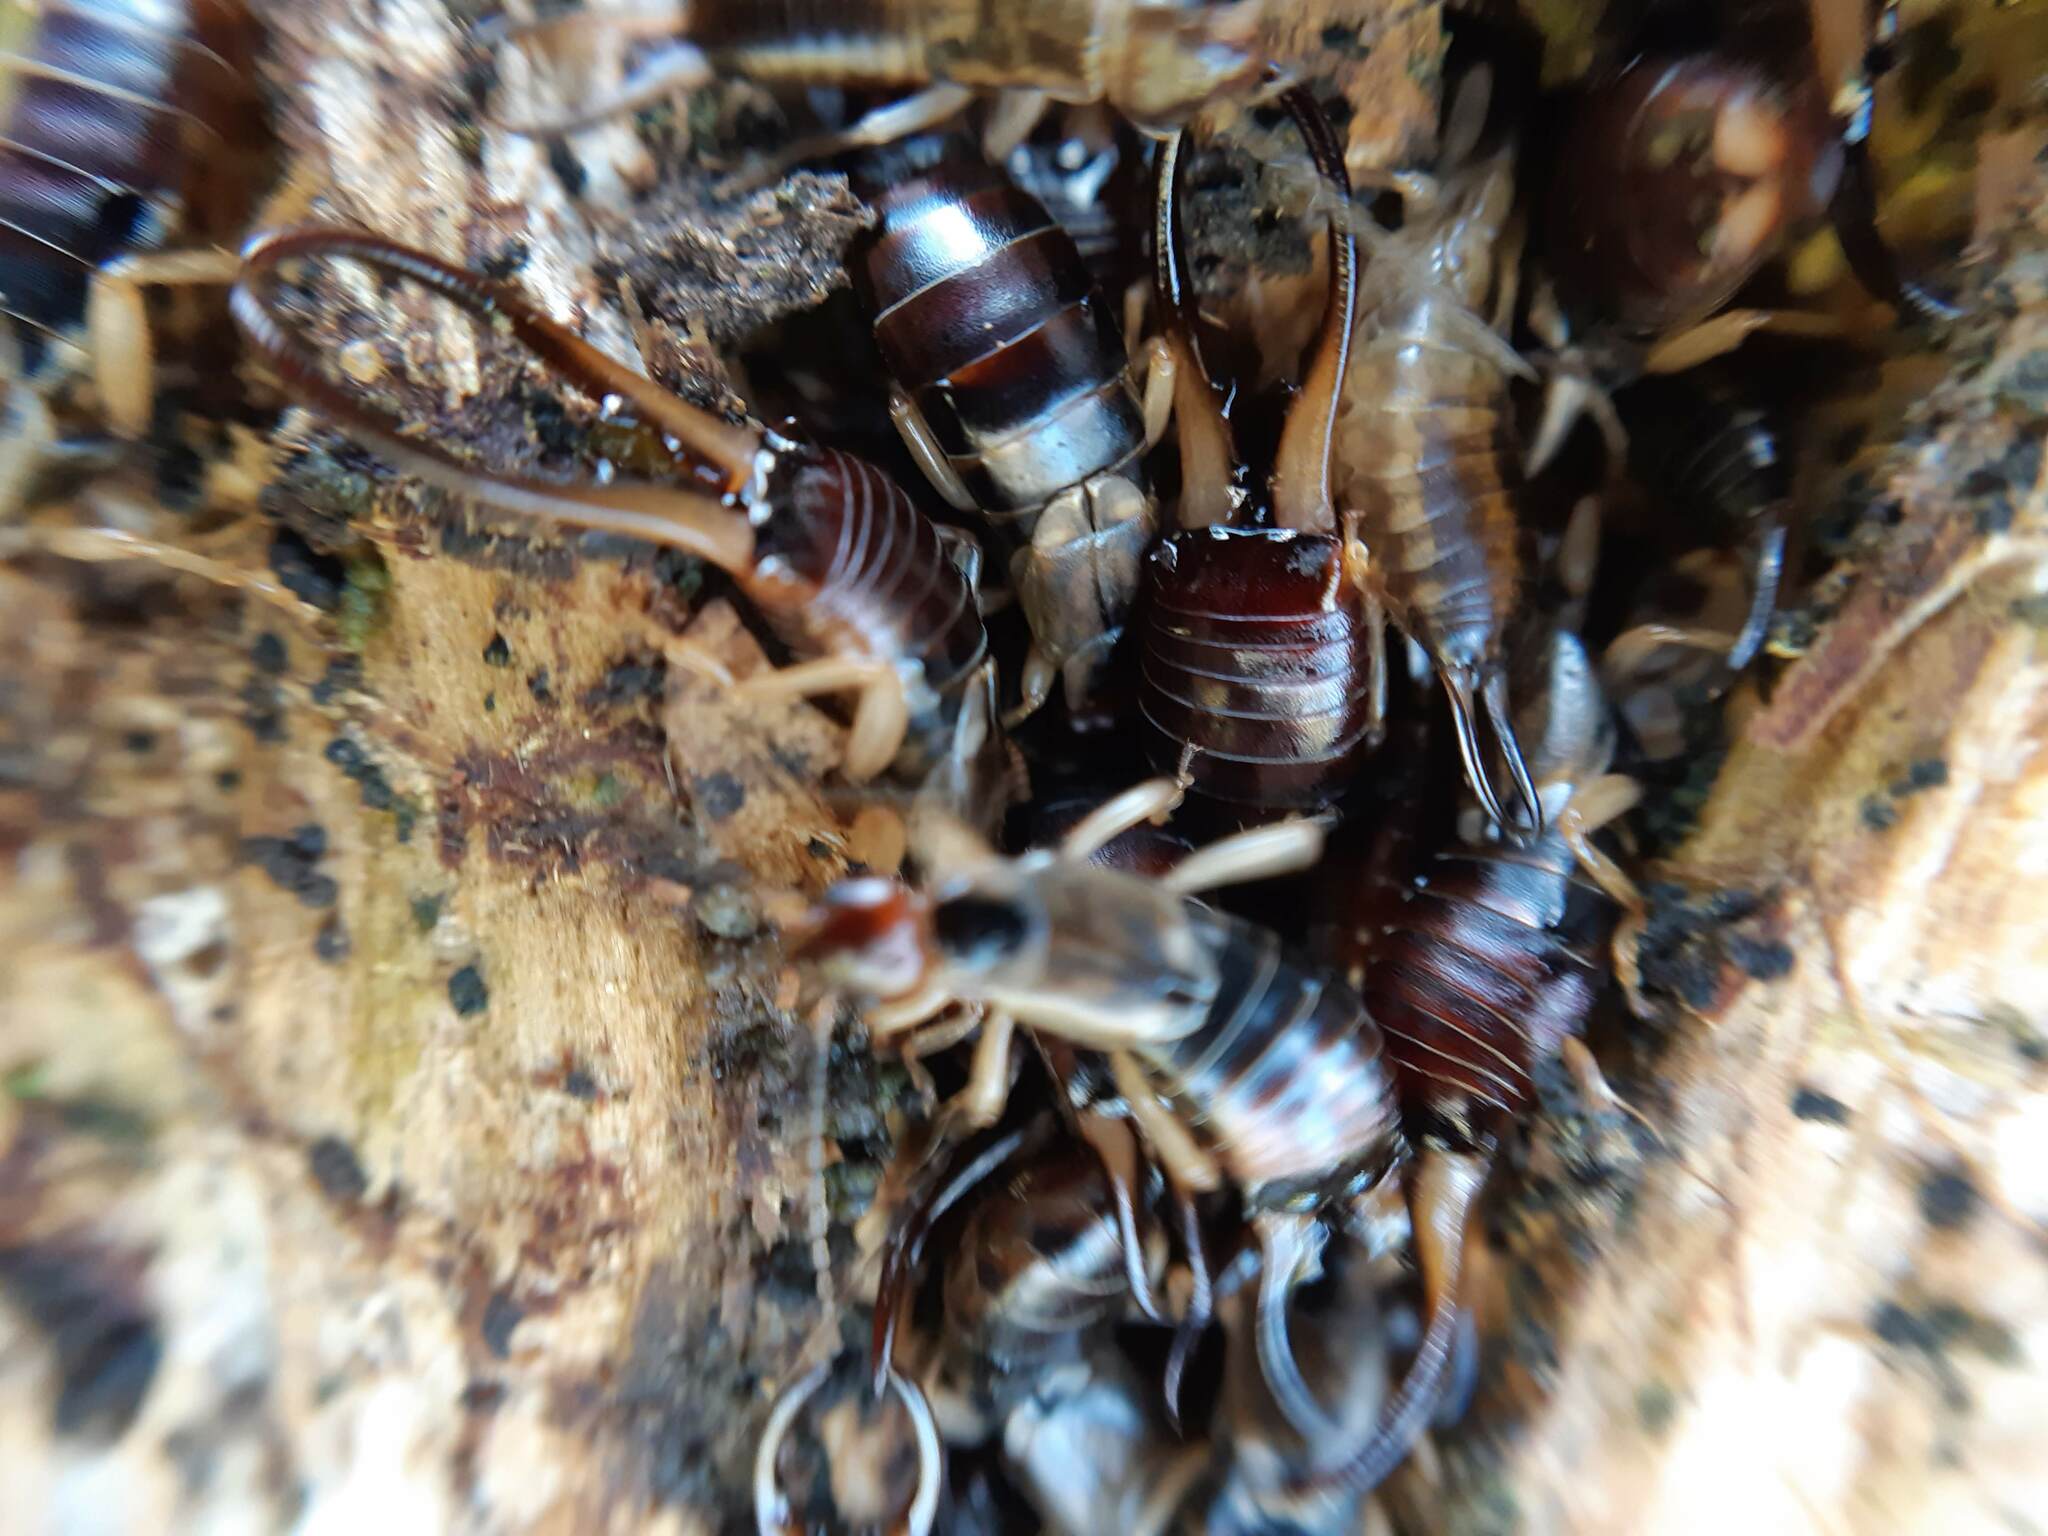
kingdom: Animalia
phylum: Arthropoda
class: Insecta
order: Dermaptera
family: Forficulidae
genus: Forficula
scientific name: Forficula dentata
